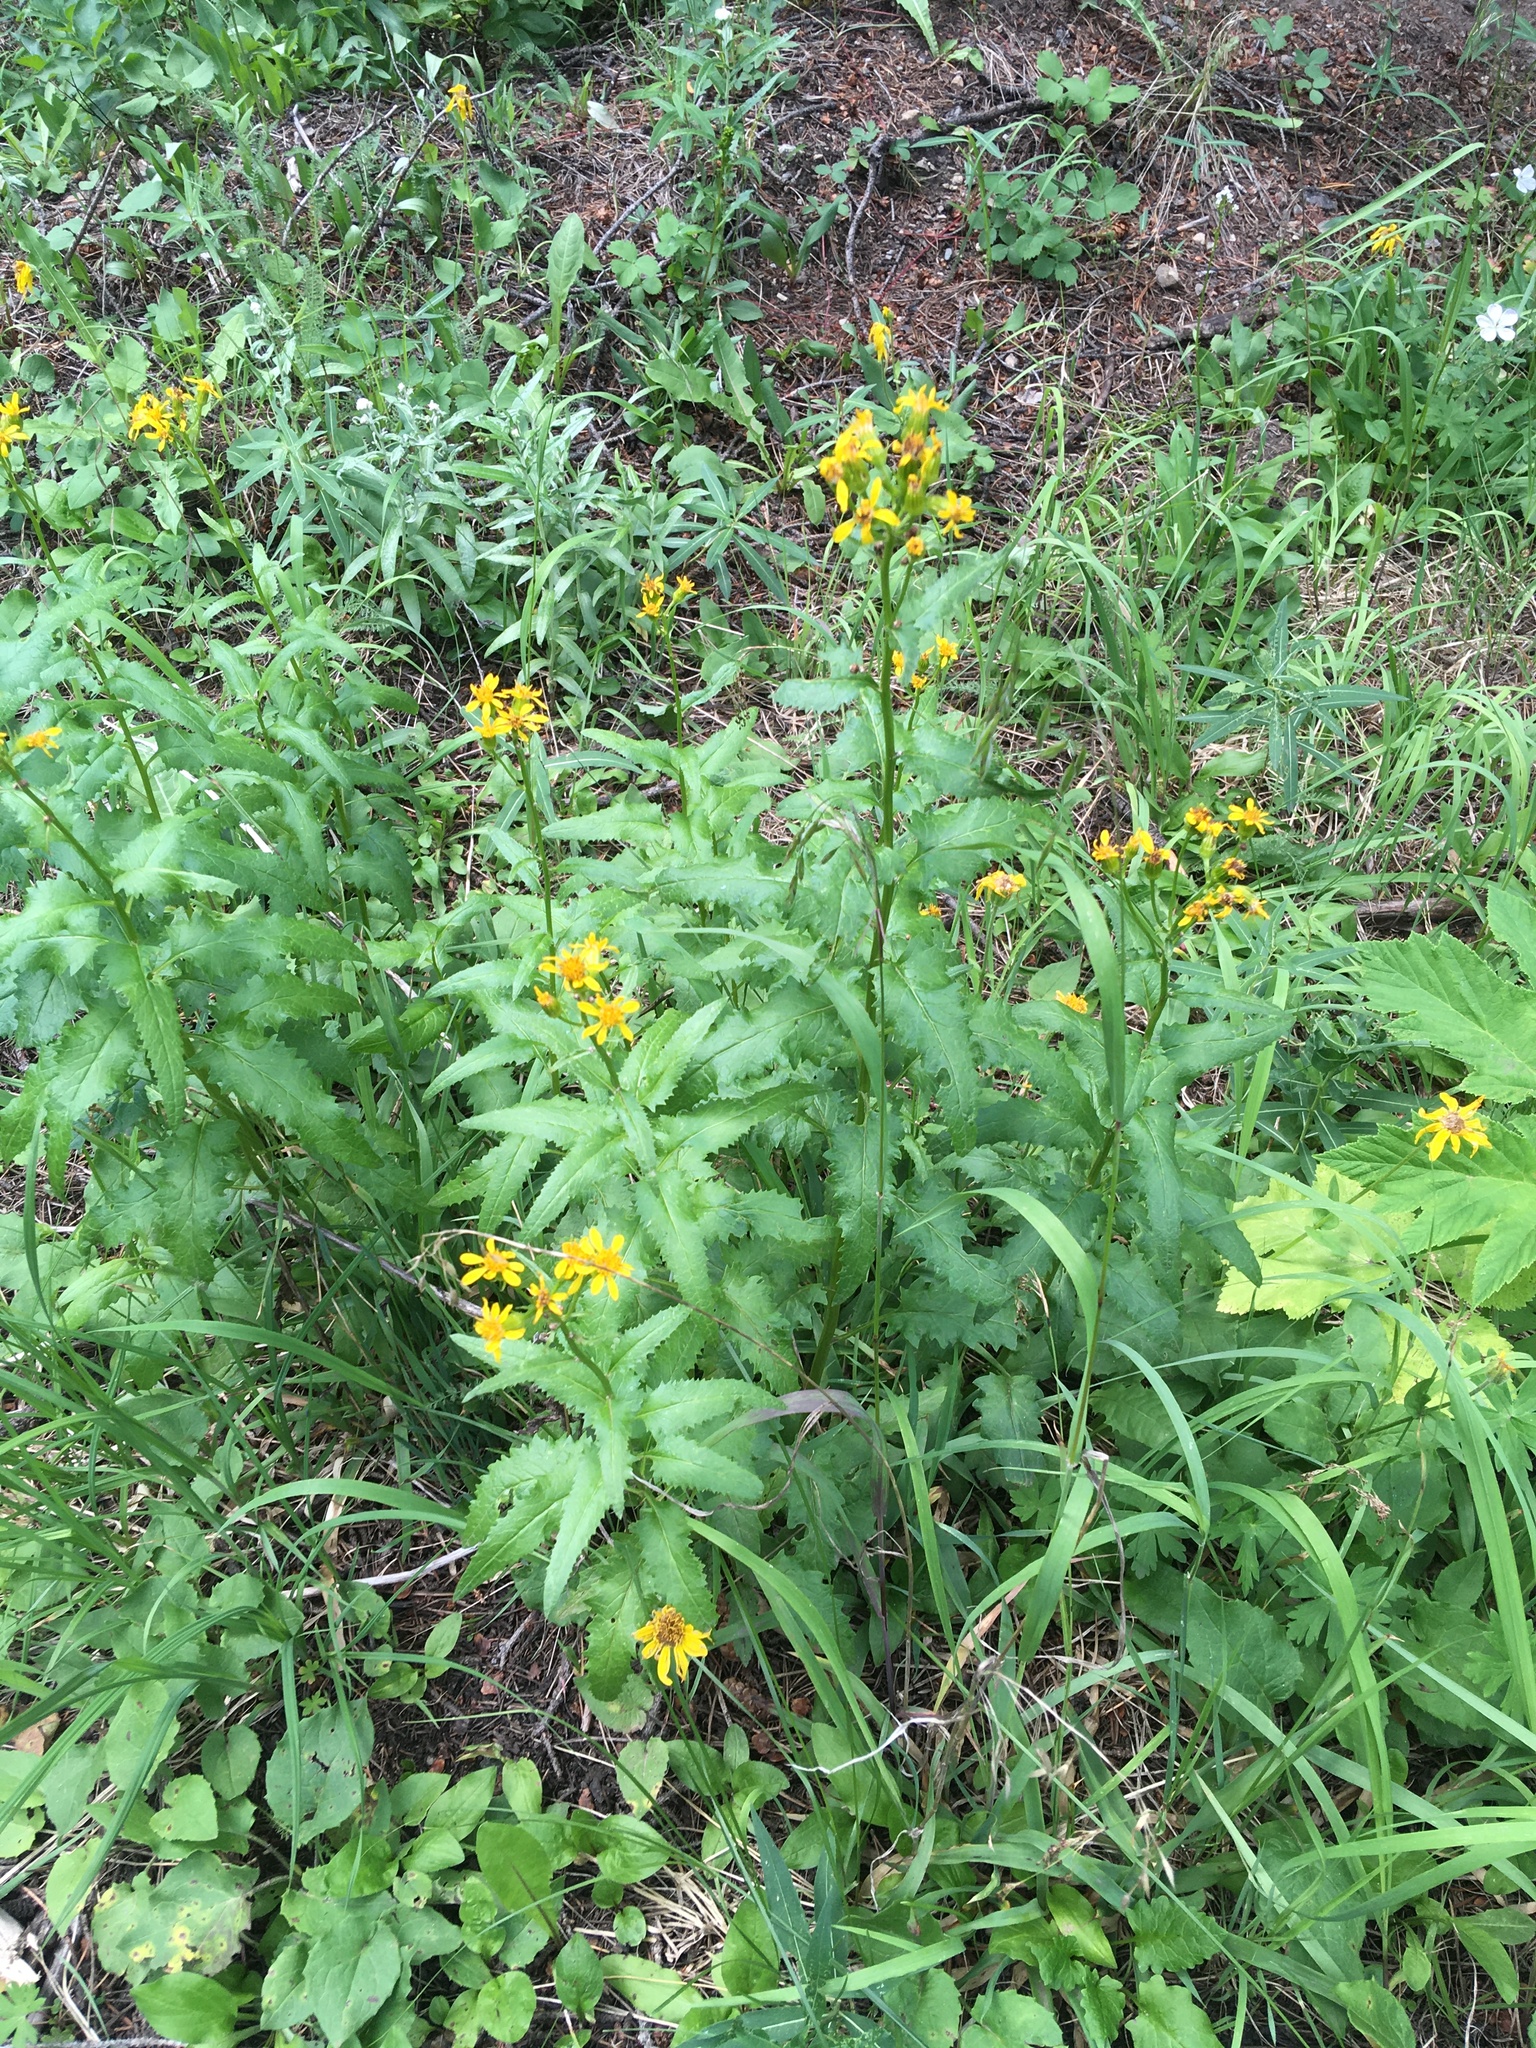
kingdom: Plantae
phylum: Tracheophyta
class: Magnoliopsida
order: Asterales
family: Asteraceae
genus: Senecio
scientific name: Senecio triangularis
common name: Arrowleaf butterweed
